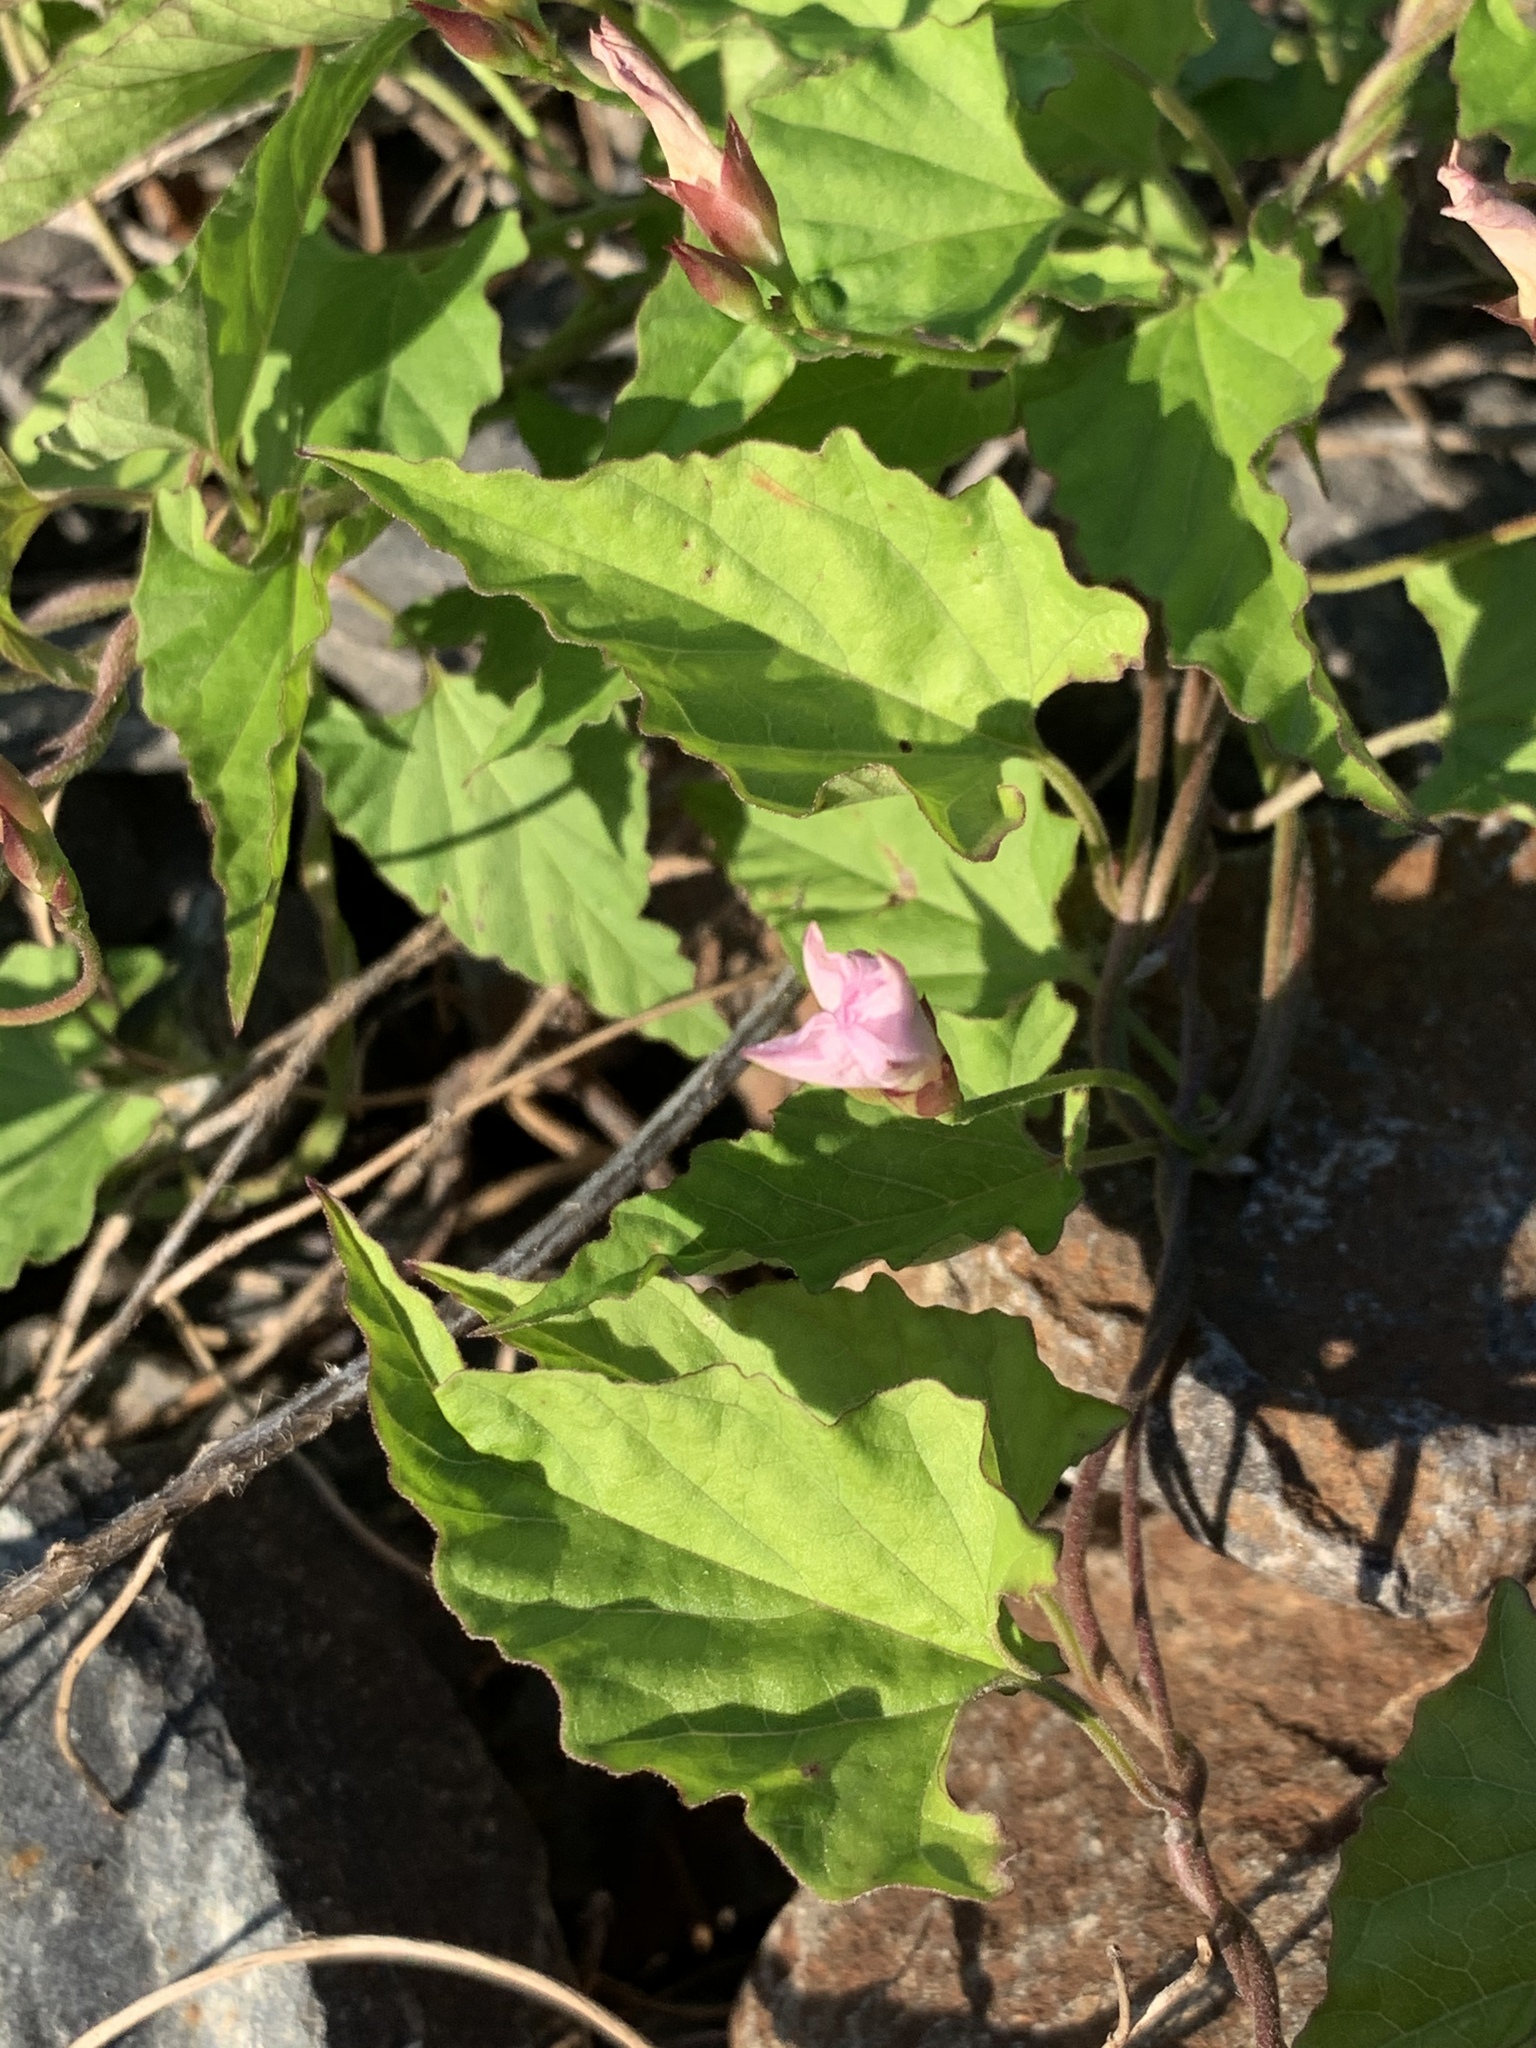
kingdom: Plantae
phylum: Tracheophyta
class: Magnoliopsida
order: Solanales
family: Convolvulaceae
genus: Convolvulus
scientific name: Convolvulus farinosus
